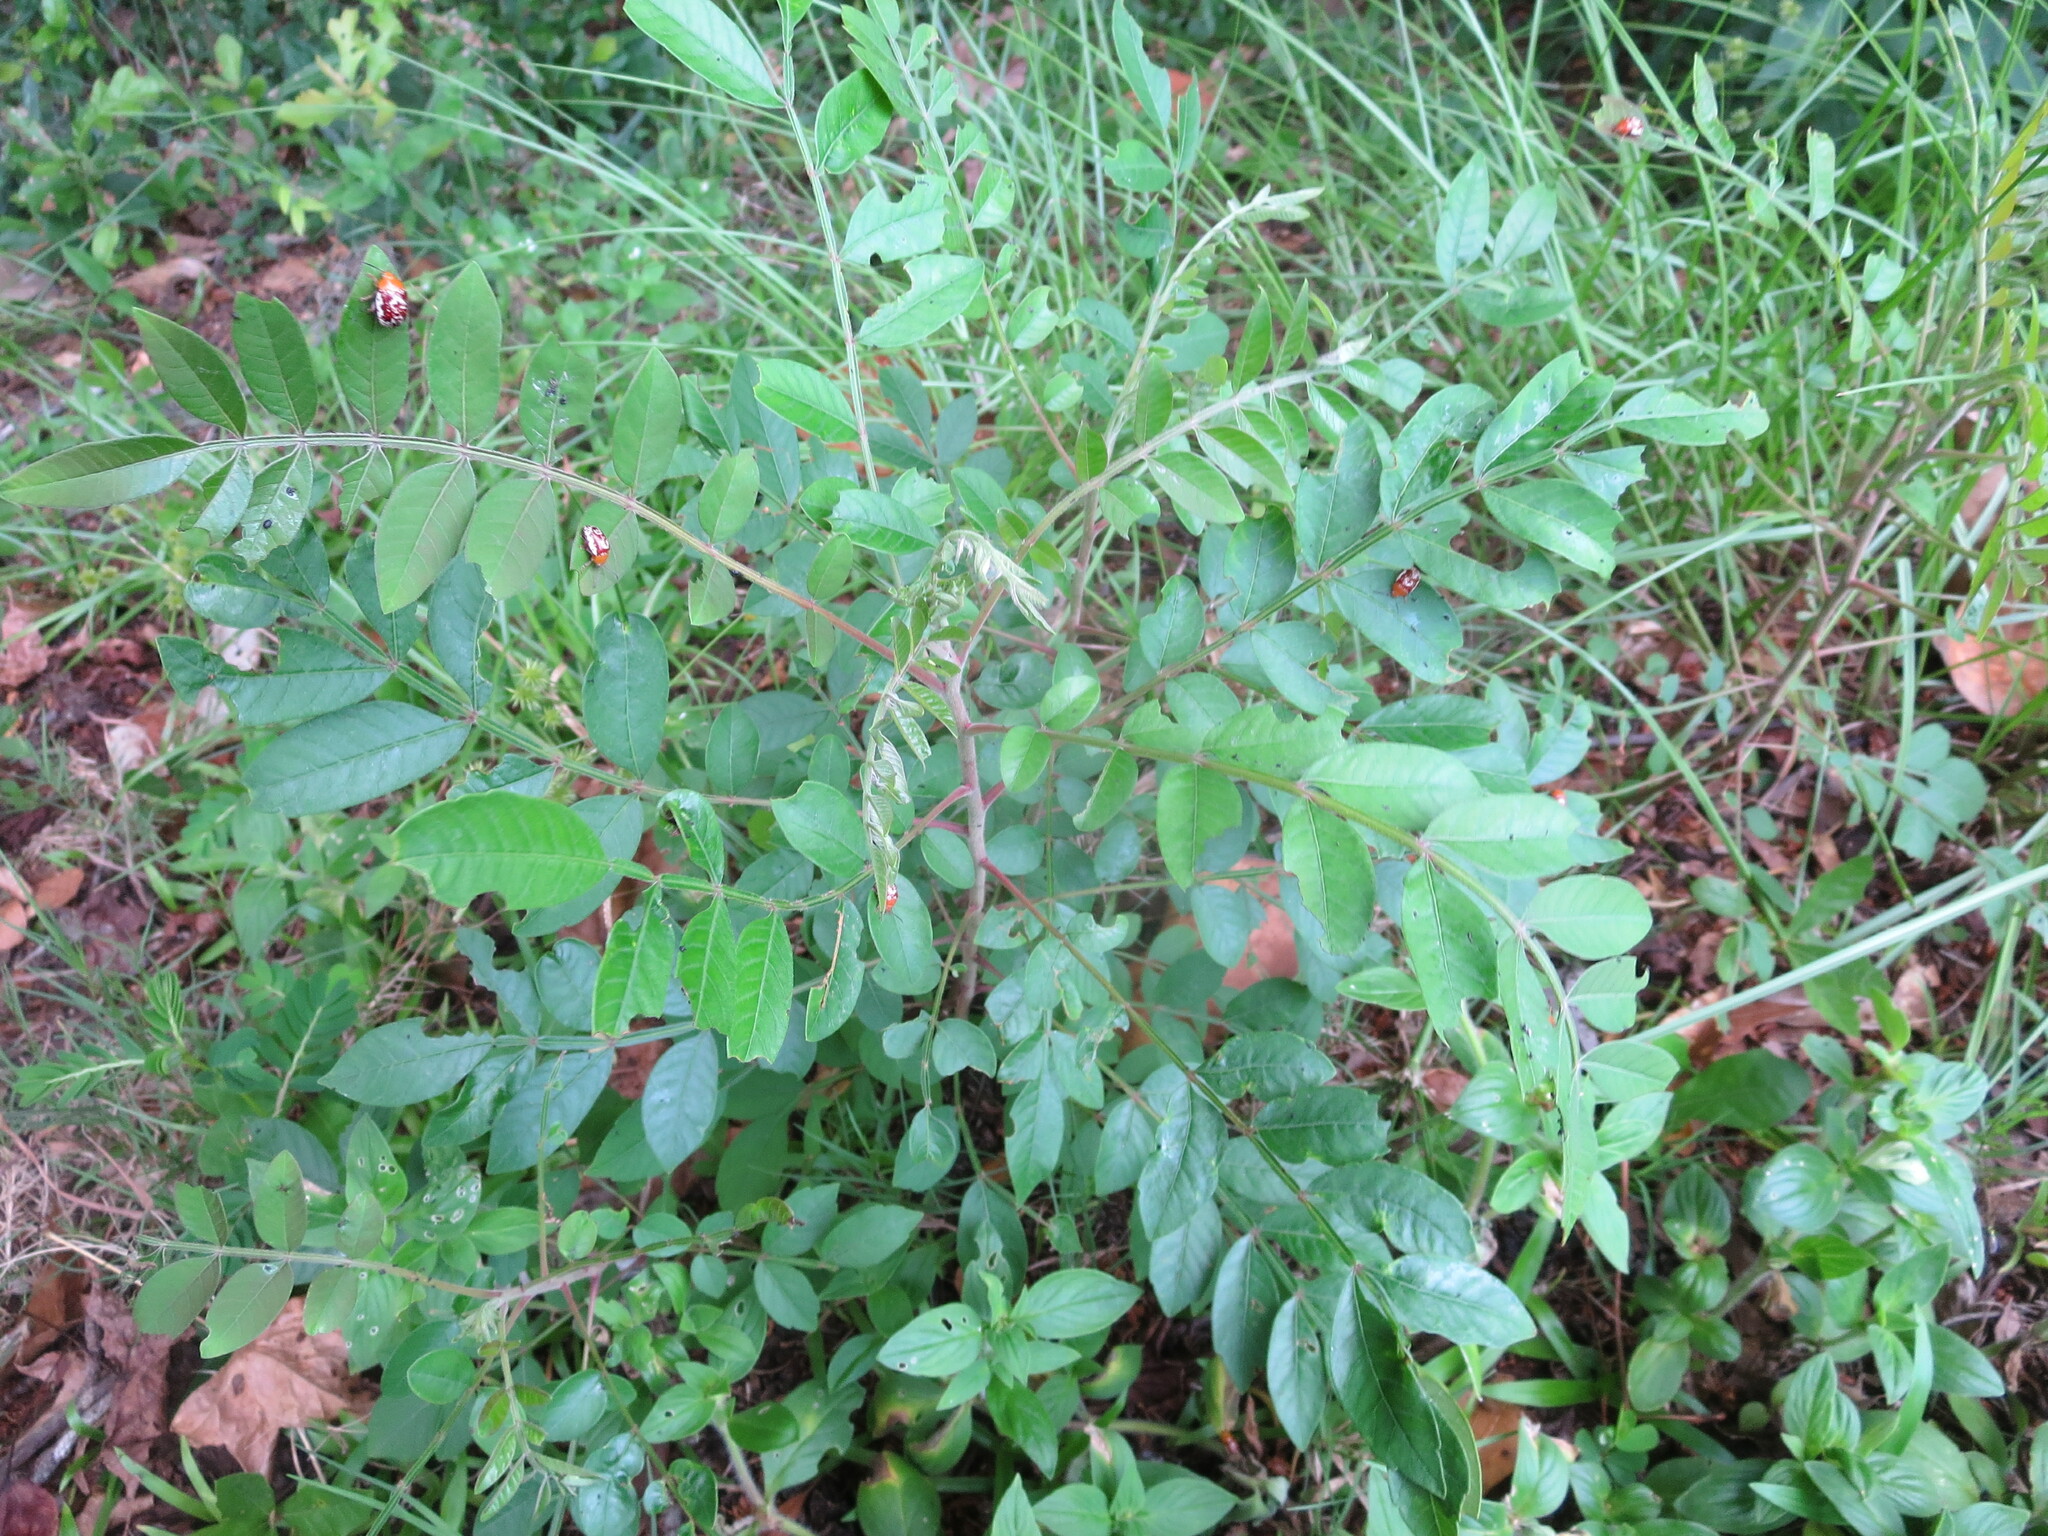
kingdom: Plantae
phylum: Tracheophyta
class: Magnoliopsida
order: Sapindales
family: Anacardiaceae
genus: Rhus
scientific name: Rhus copallina
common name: Shining sumac
